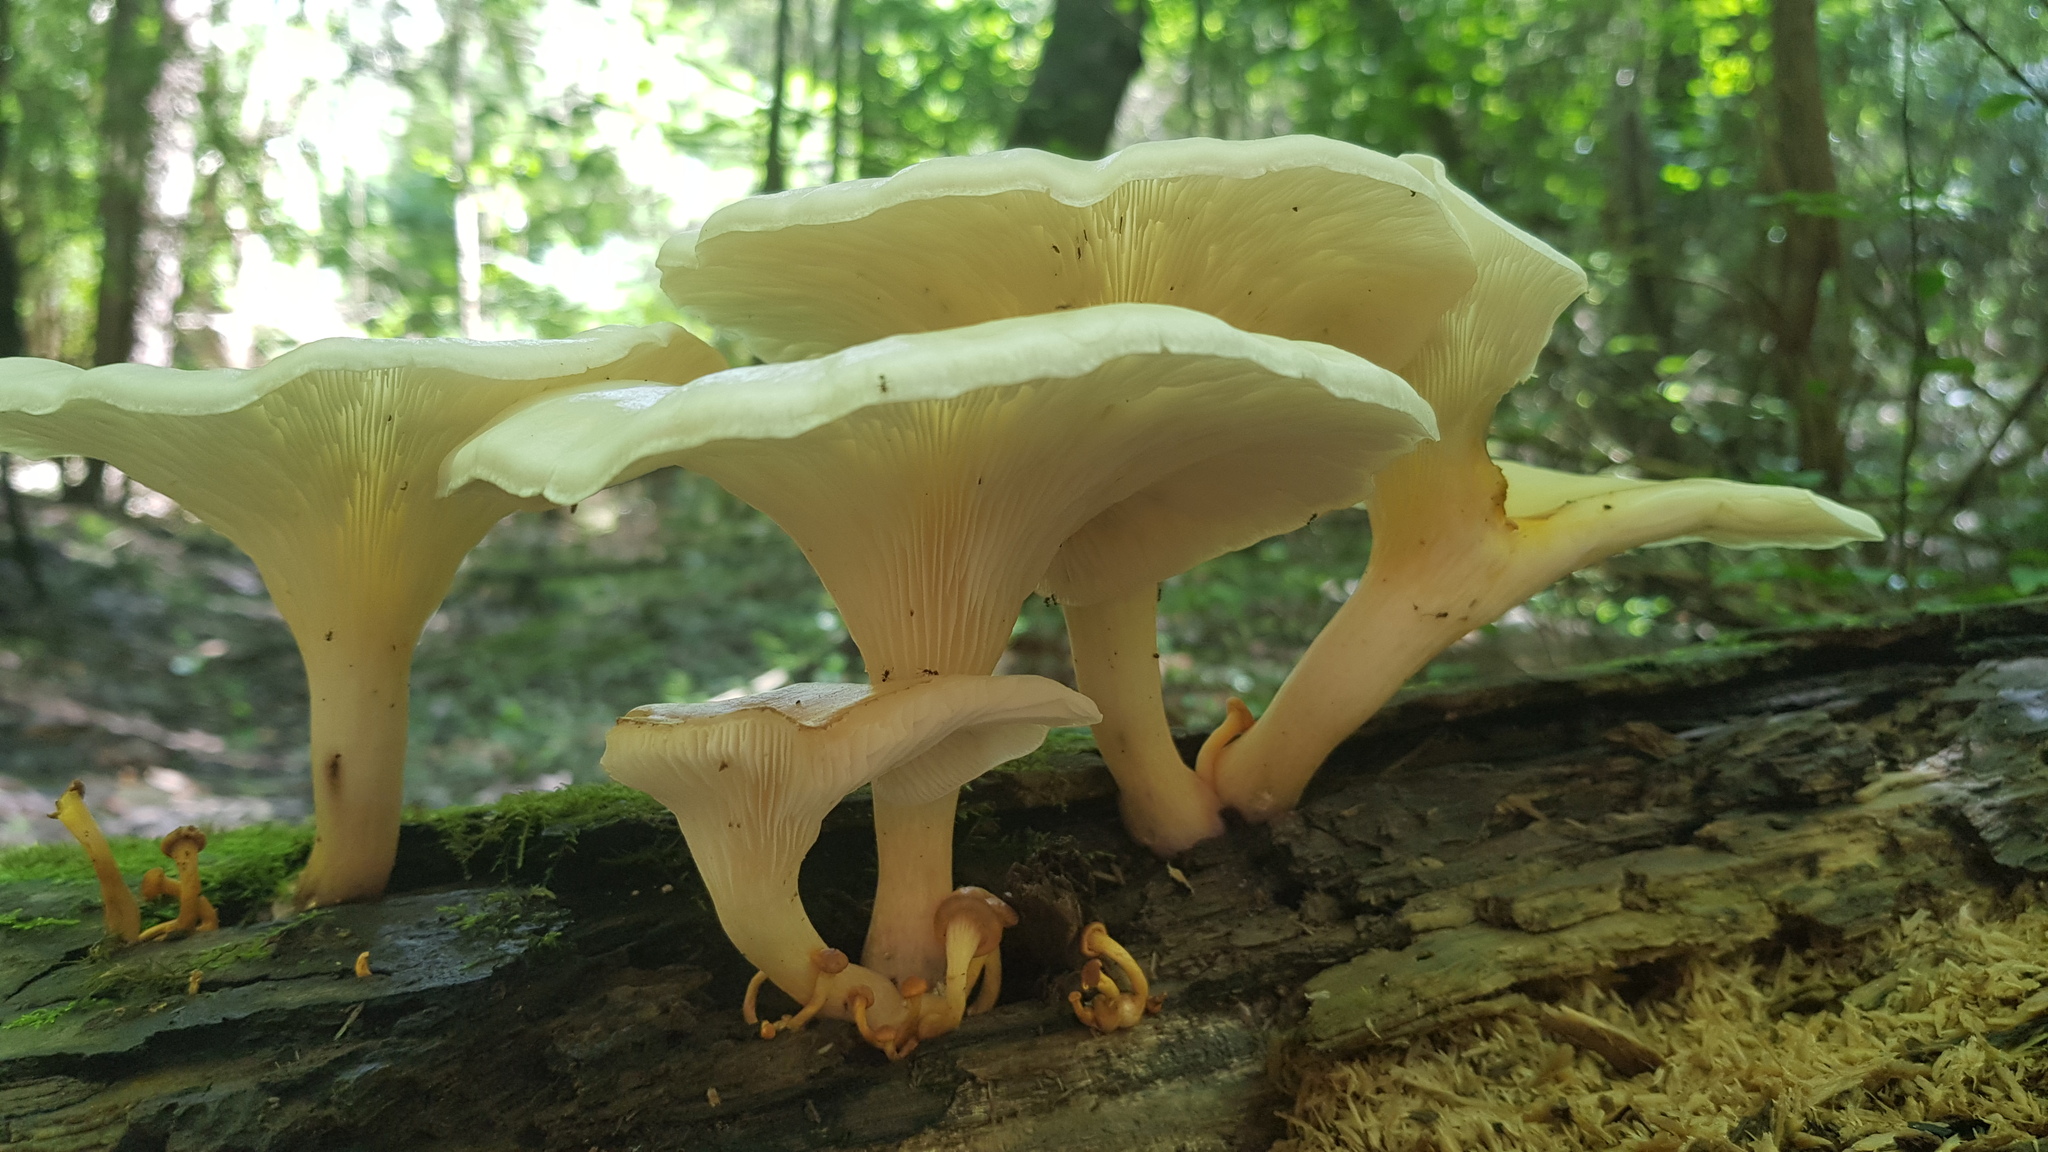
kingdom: Fungi
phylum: Basidiomycota
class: Agaricomycetes
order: Agaricales
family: Omphalotaceae
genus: Omphalotus
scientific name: Omphalotus nidiformis
